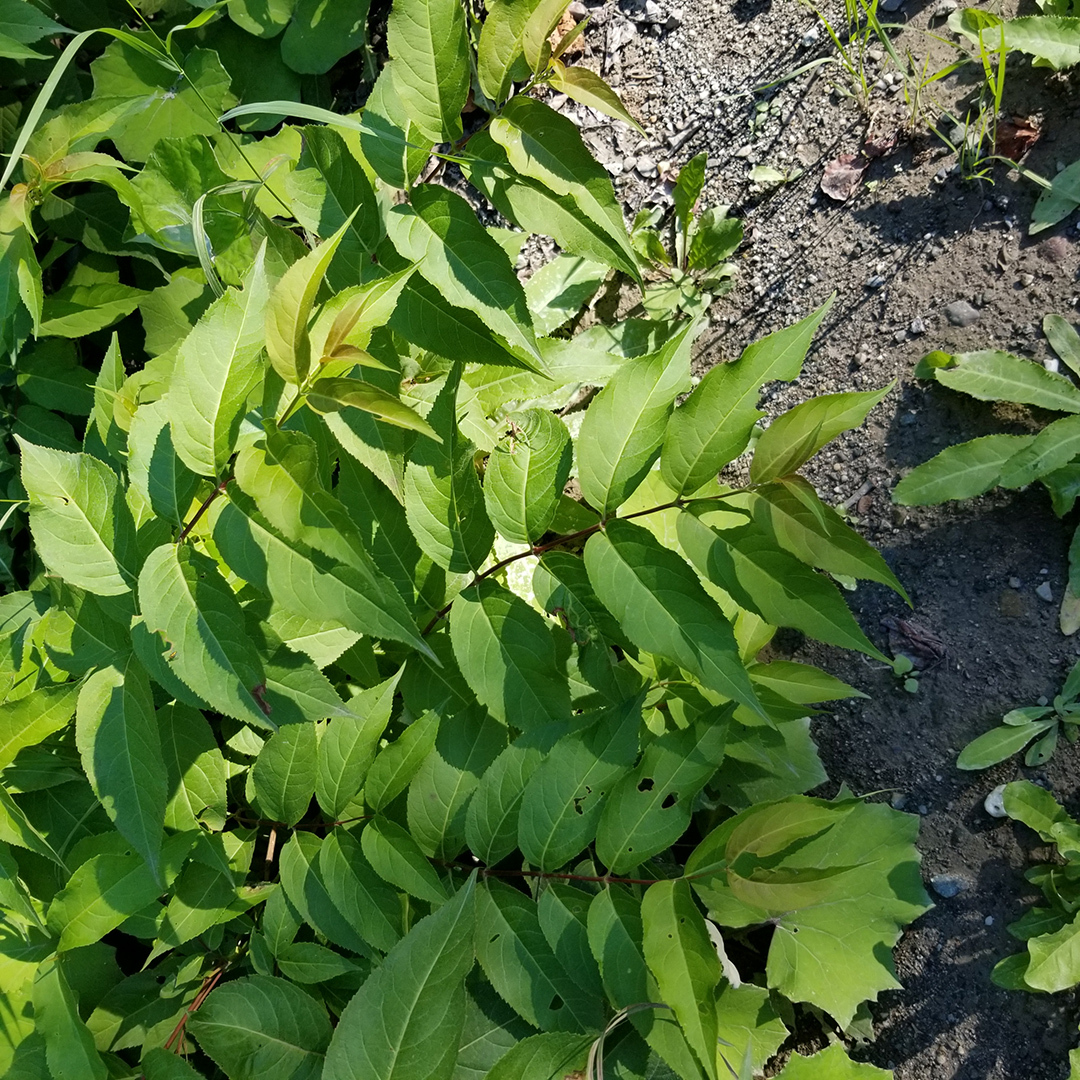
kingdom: Plantae
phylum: Tracheophyta
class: Magnoliopsida
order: Dipsacales
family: Caprifoliaceae
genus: Diervilla
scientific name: Diervilla lonicera
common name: Bush-honeysuckle
